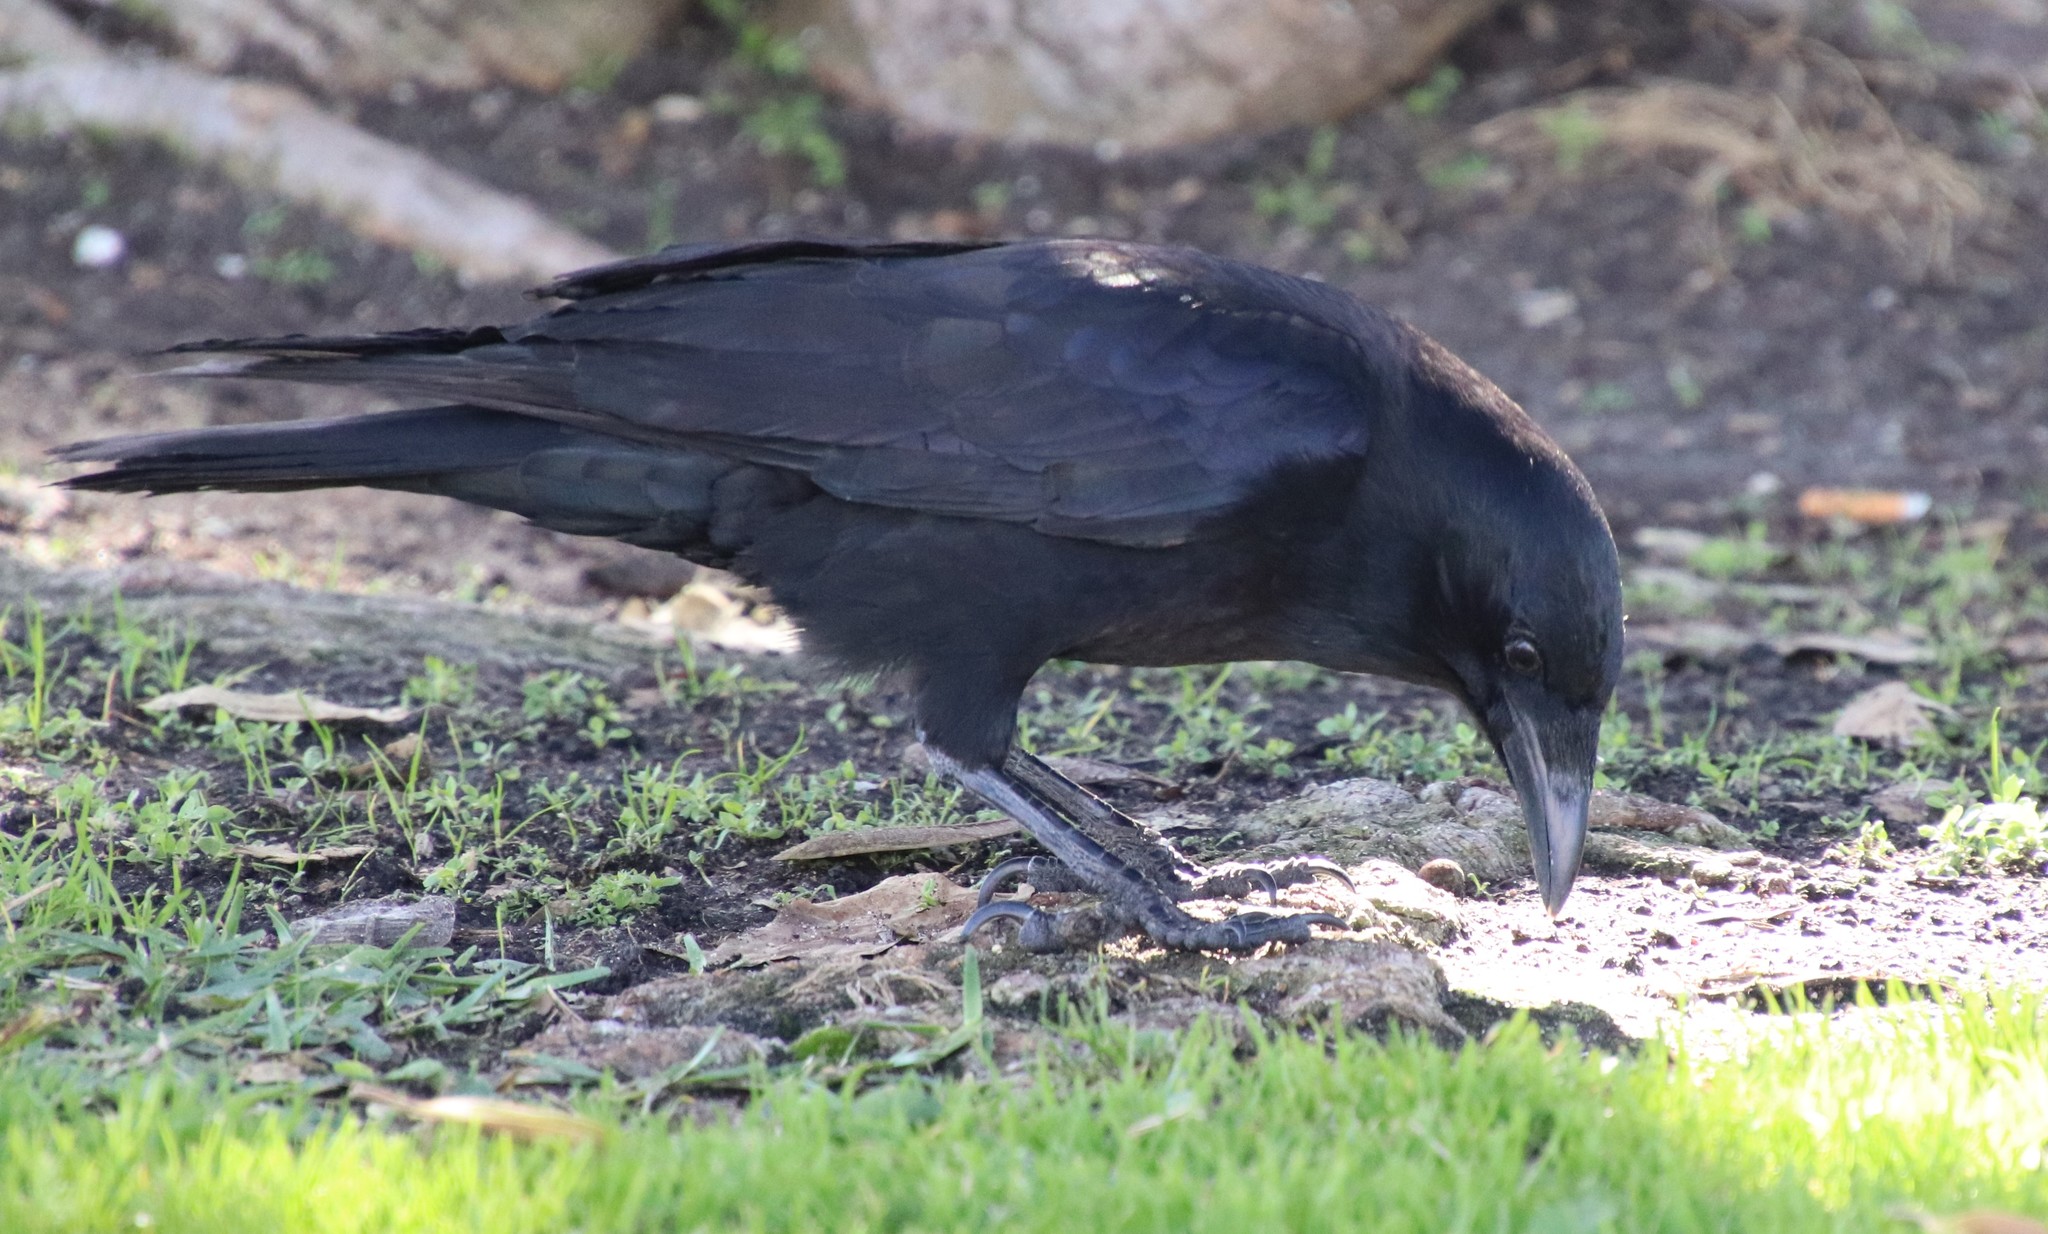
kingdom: Animalia
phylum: Chordata
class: Aves
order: Passeriformes
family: Corvidae
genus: Corvus
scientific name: Corvus brachyrhynchos
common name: American crow
